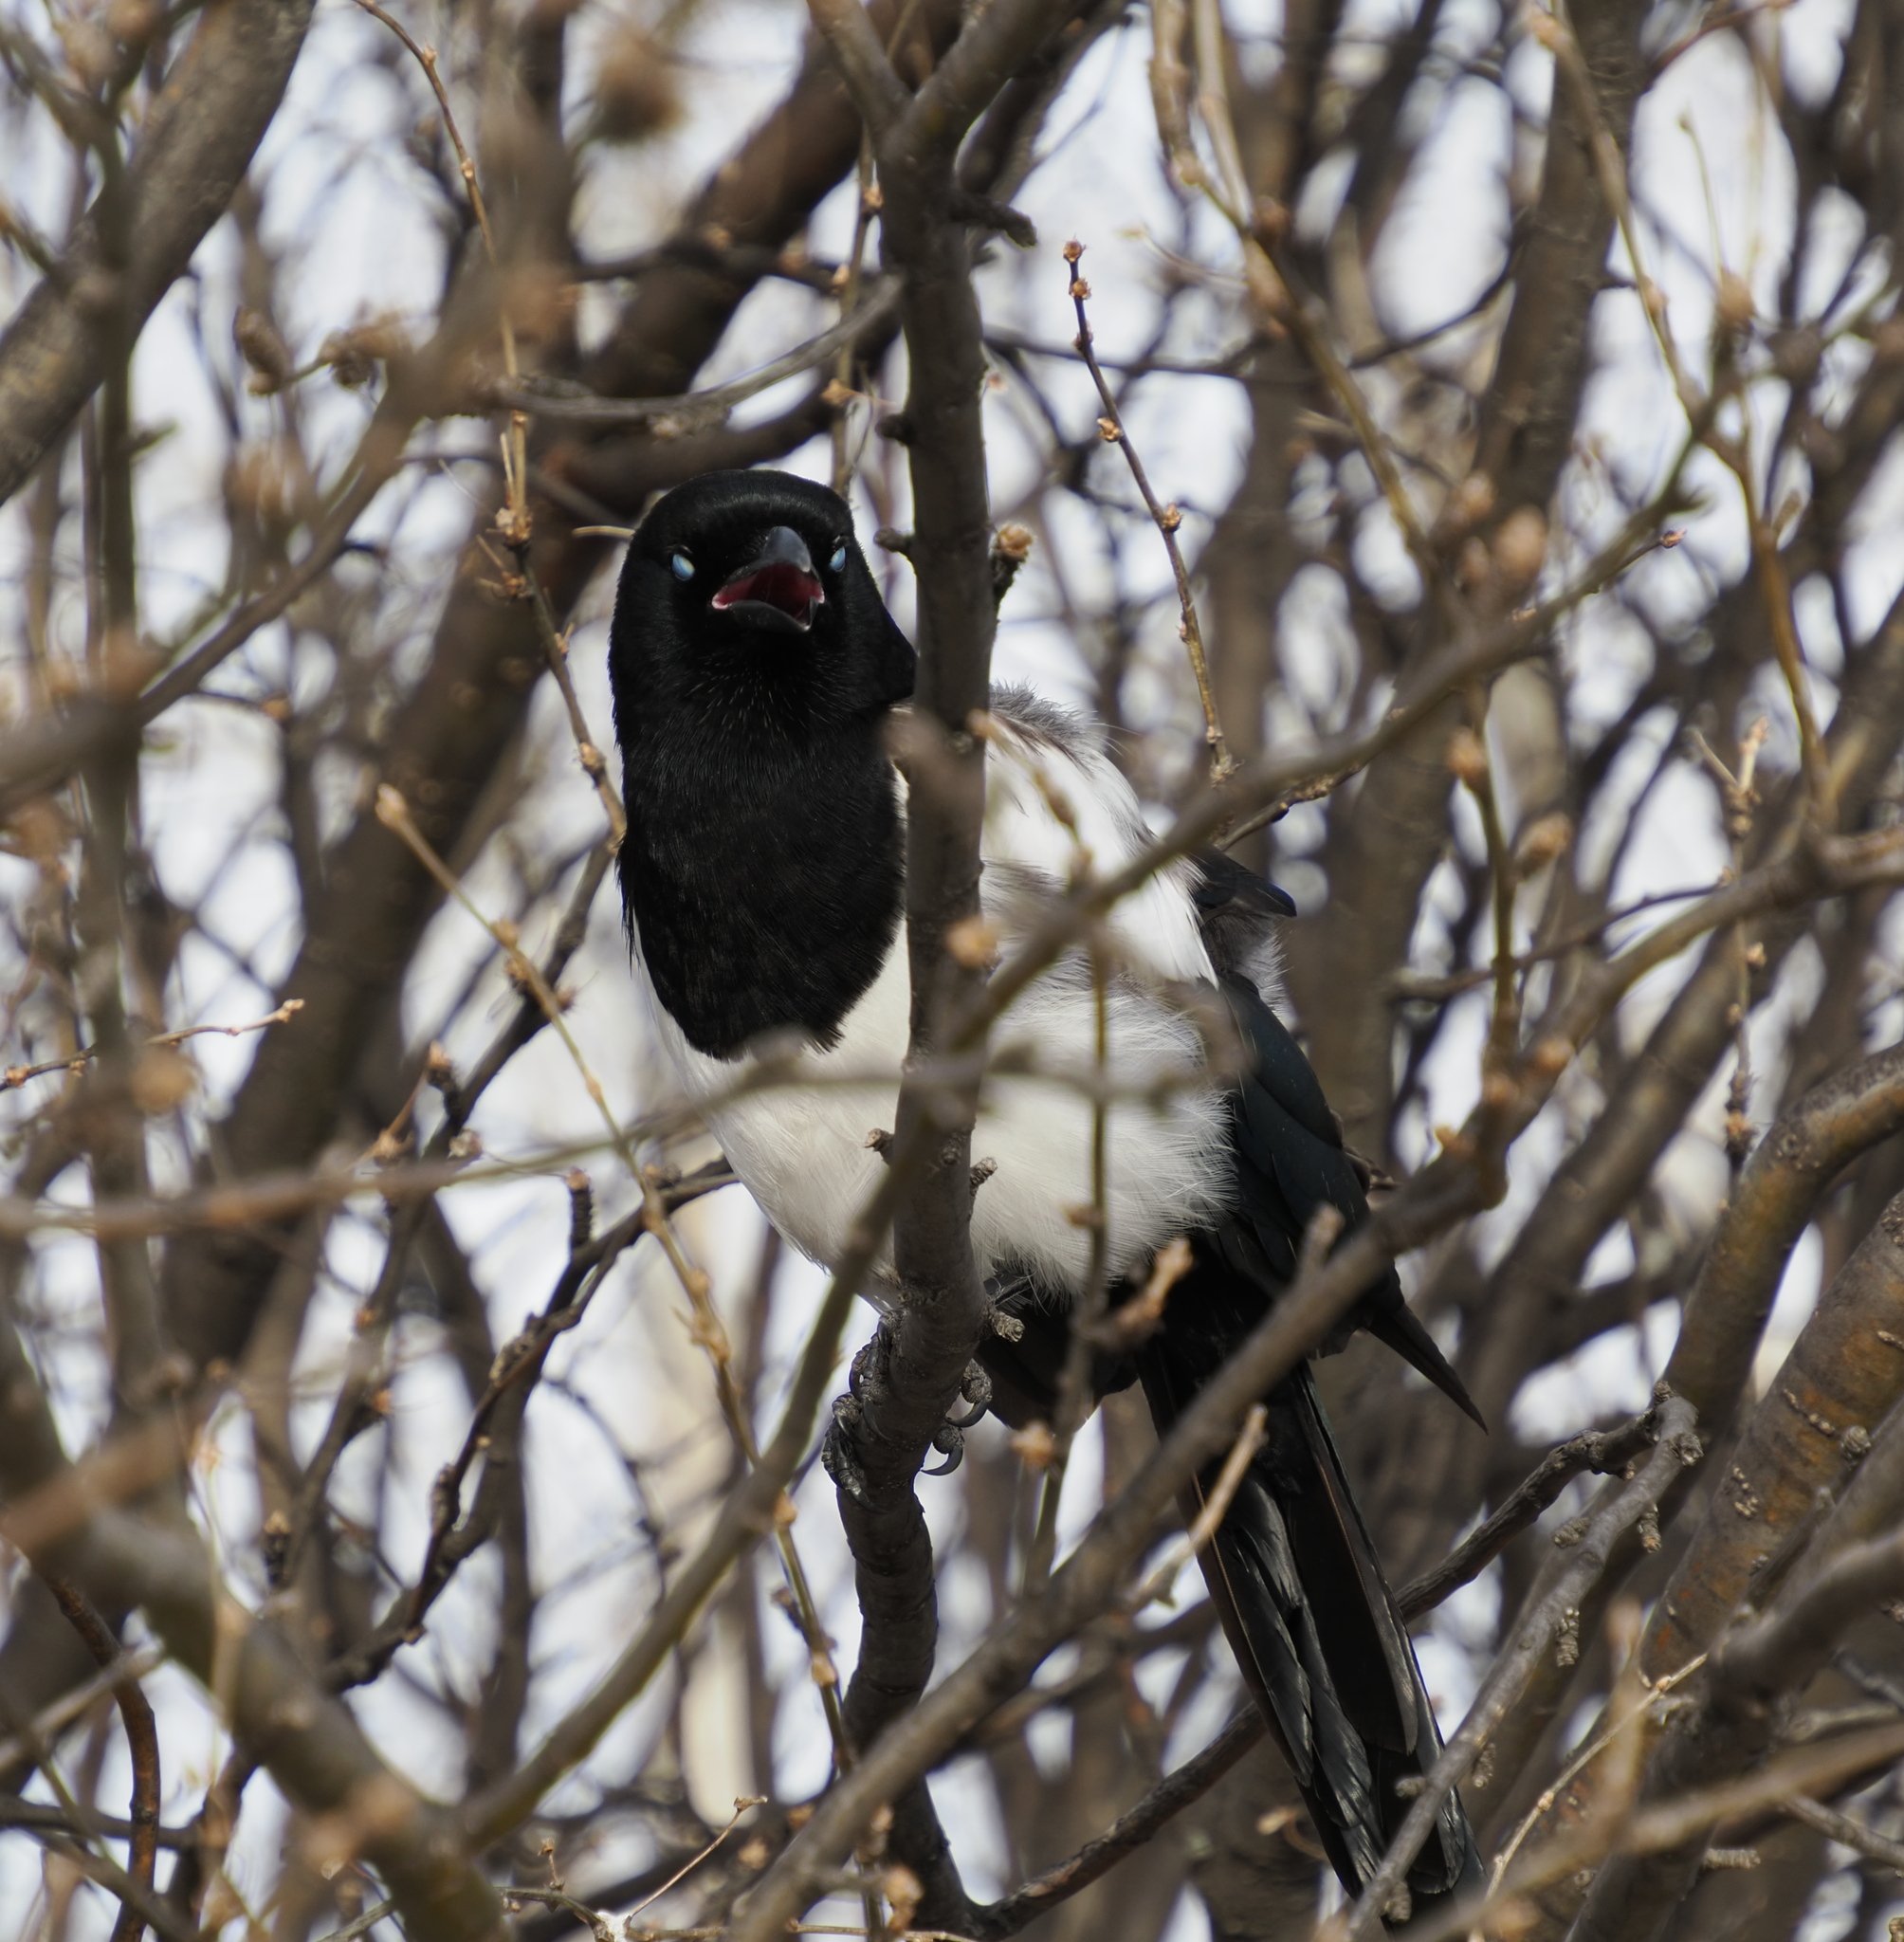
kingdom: Animalia
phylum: Chordata
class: Aves
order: Passeriformes
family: Corvidae
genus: Pica
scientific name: Pica hudsonia
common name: Black-billed magpie
